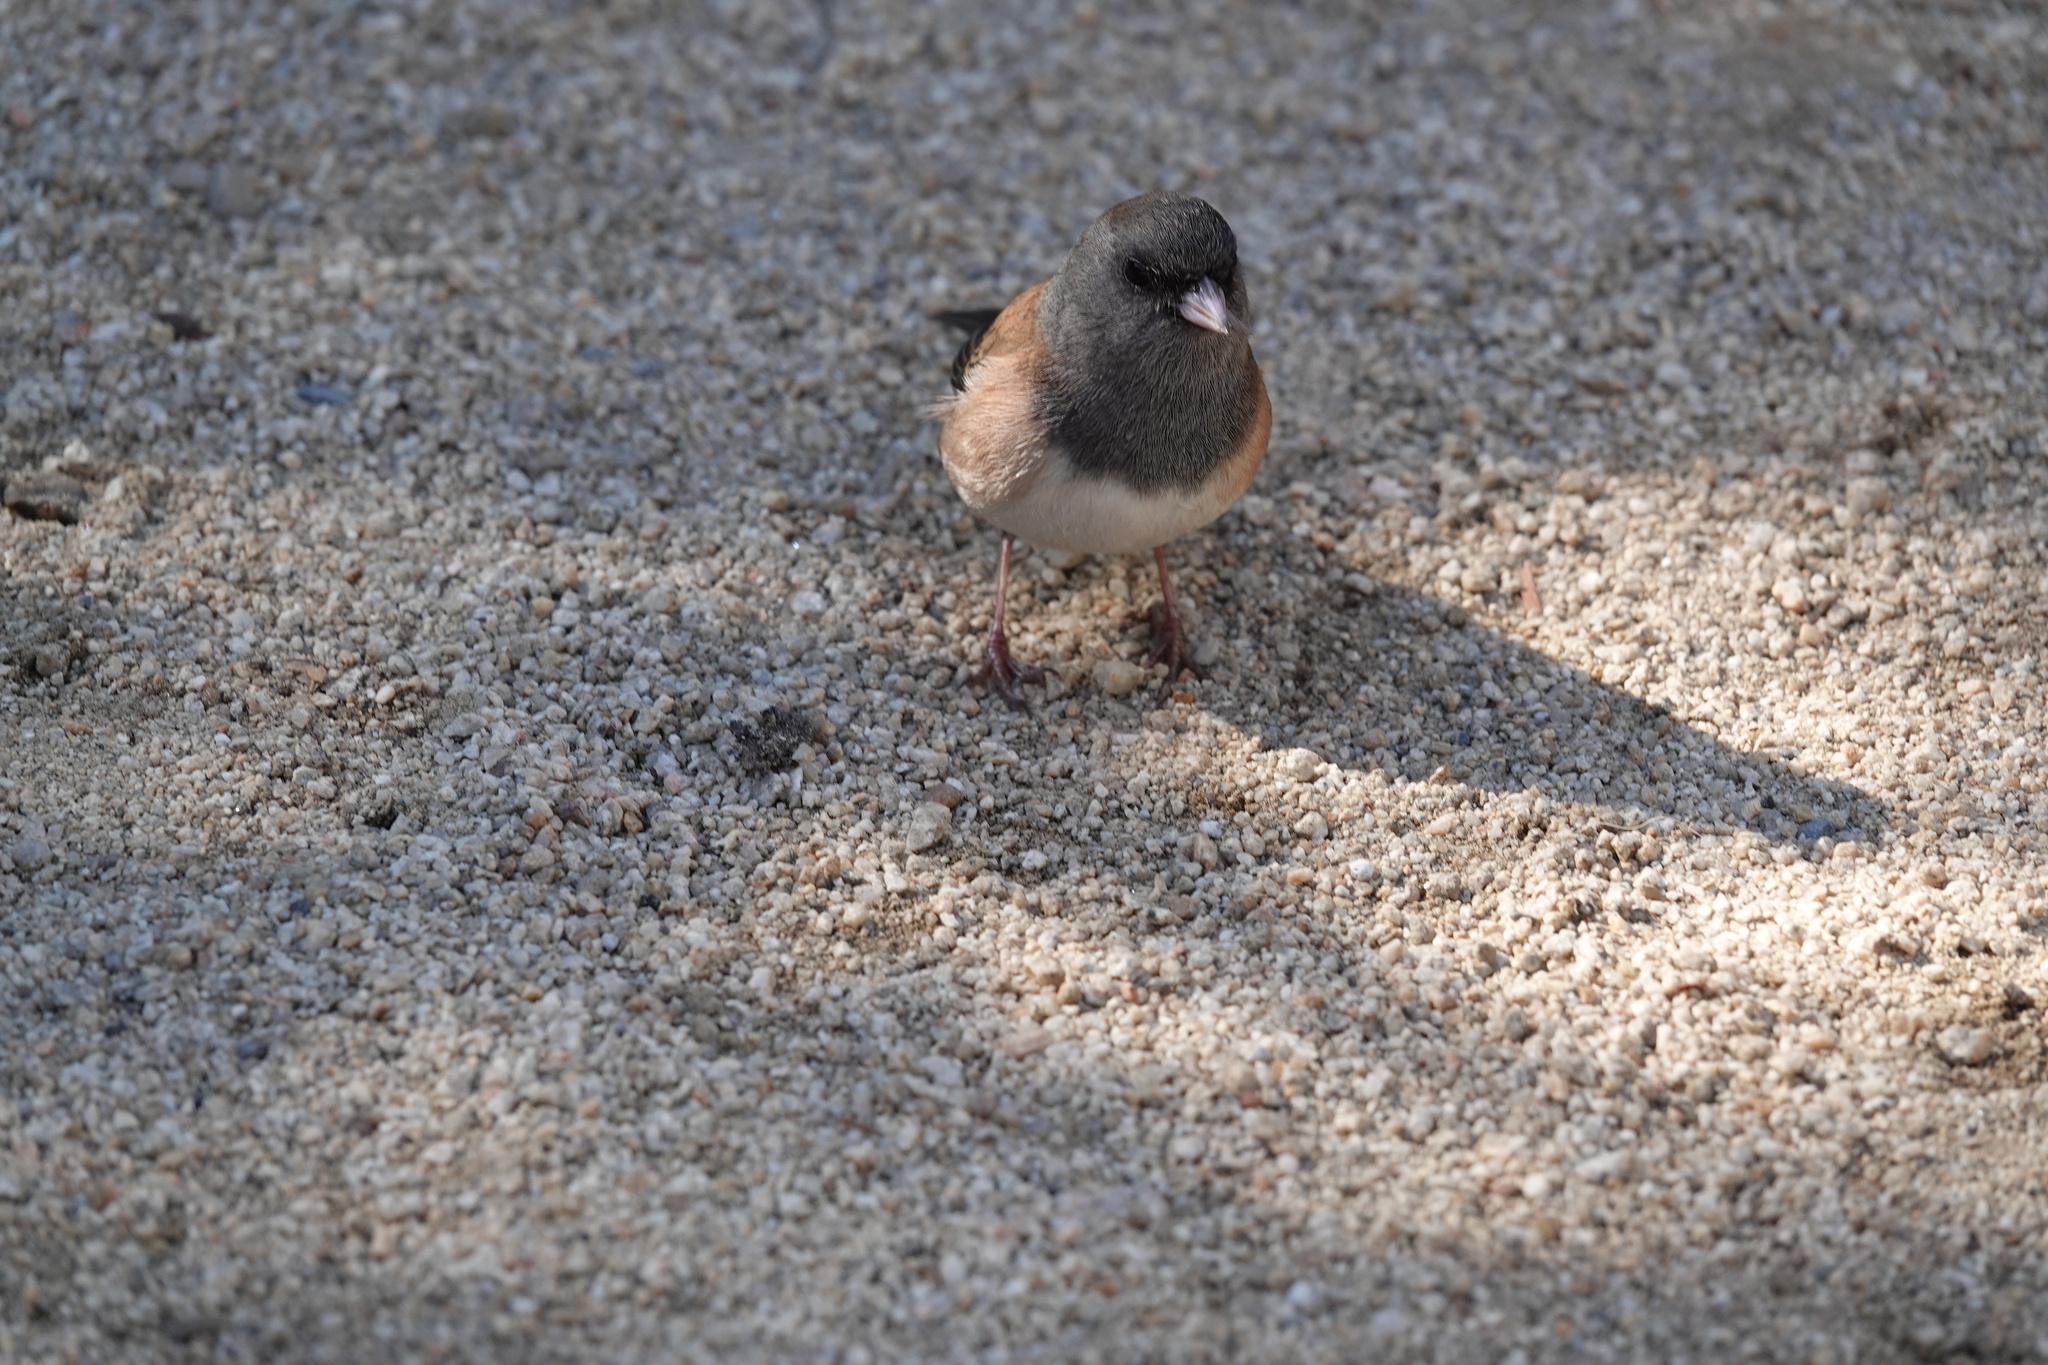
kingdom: Animalia
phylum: Chordata
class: Aves
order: Passeriformes
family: Passerellidae
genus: Junco
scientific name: Junco hyemalis
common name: Dark-eyed junco
